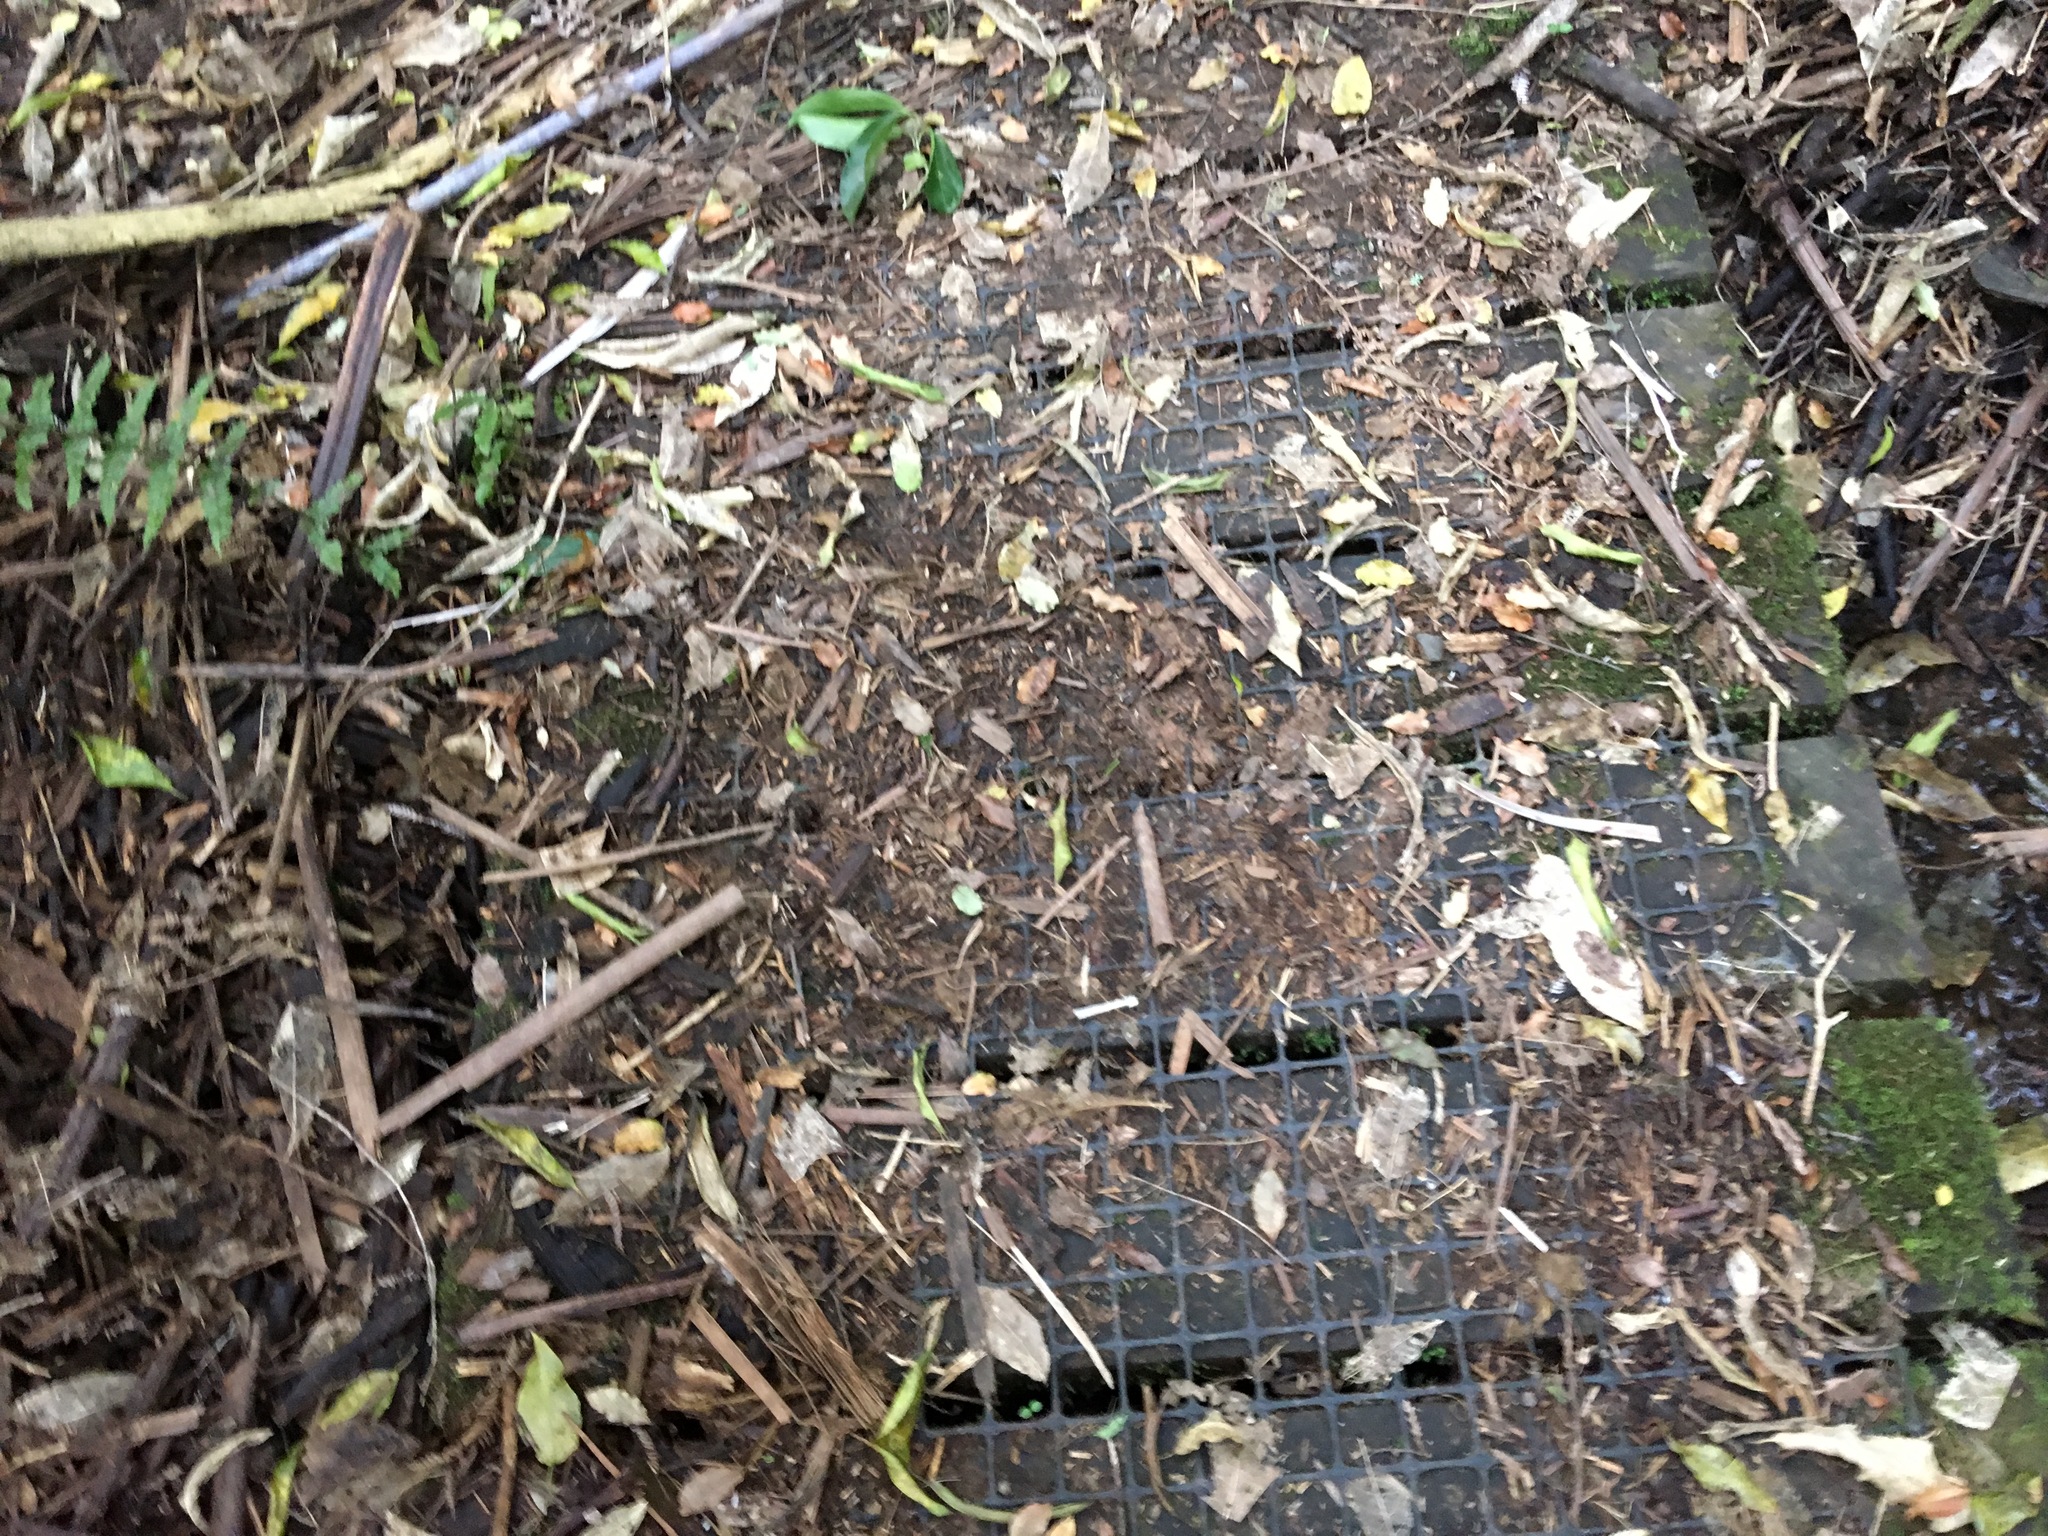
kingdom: Plantae
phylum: Tracheophyta
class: Liliopsida
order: Zingiberales
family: Zingiberaceae
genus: Hedychium
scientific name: Hedychium gardnerianum
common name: Himalayan ginger
